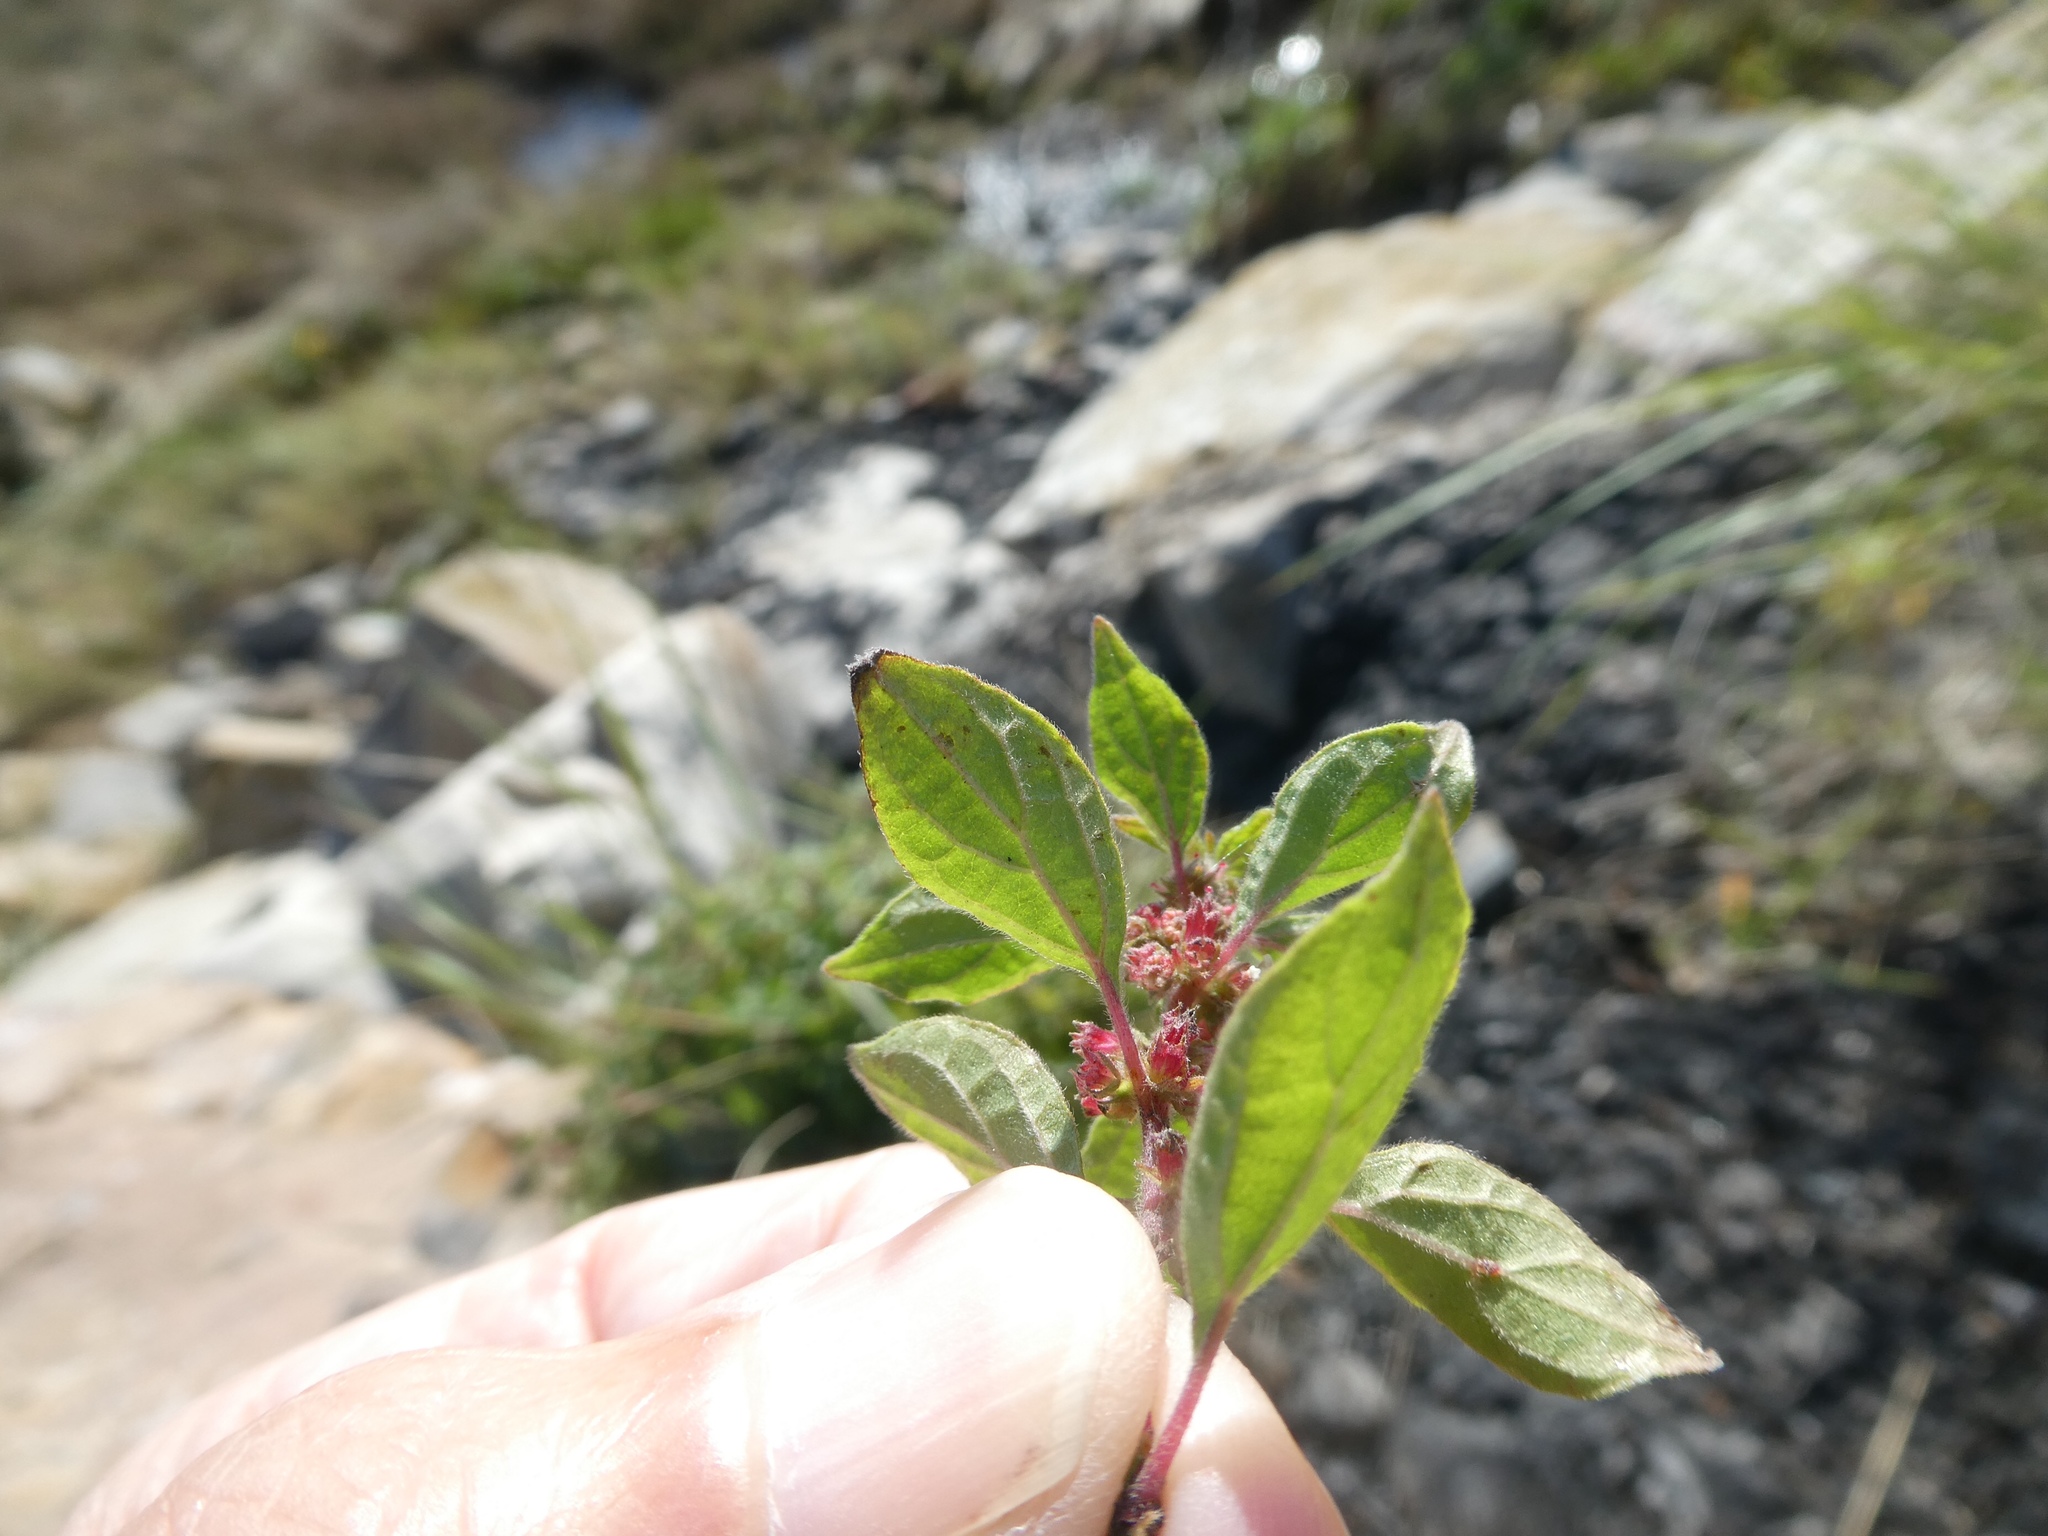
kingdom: Plantae
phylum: Tracheophyta
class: Magnoliopsida
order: Rosales
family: Urticaceae
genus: Parietaria
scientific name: Parietaria judaica
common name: Pellitory-of-the-wall
